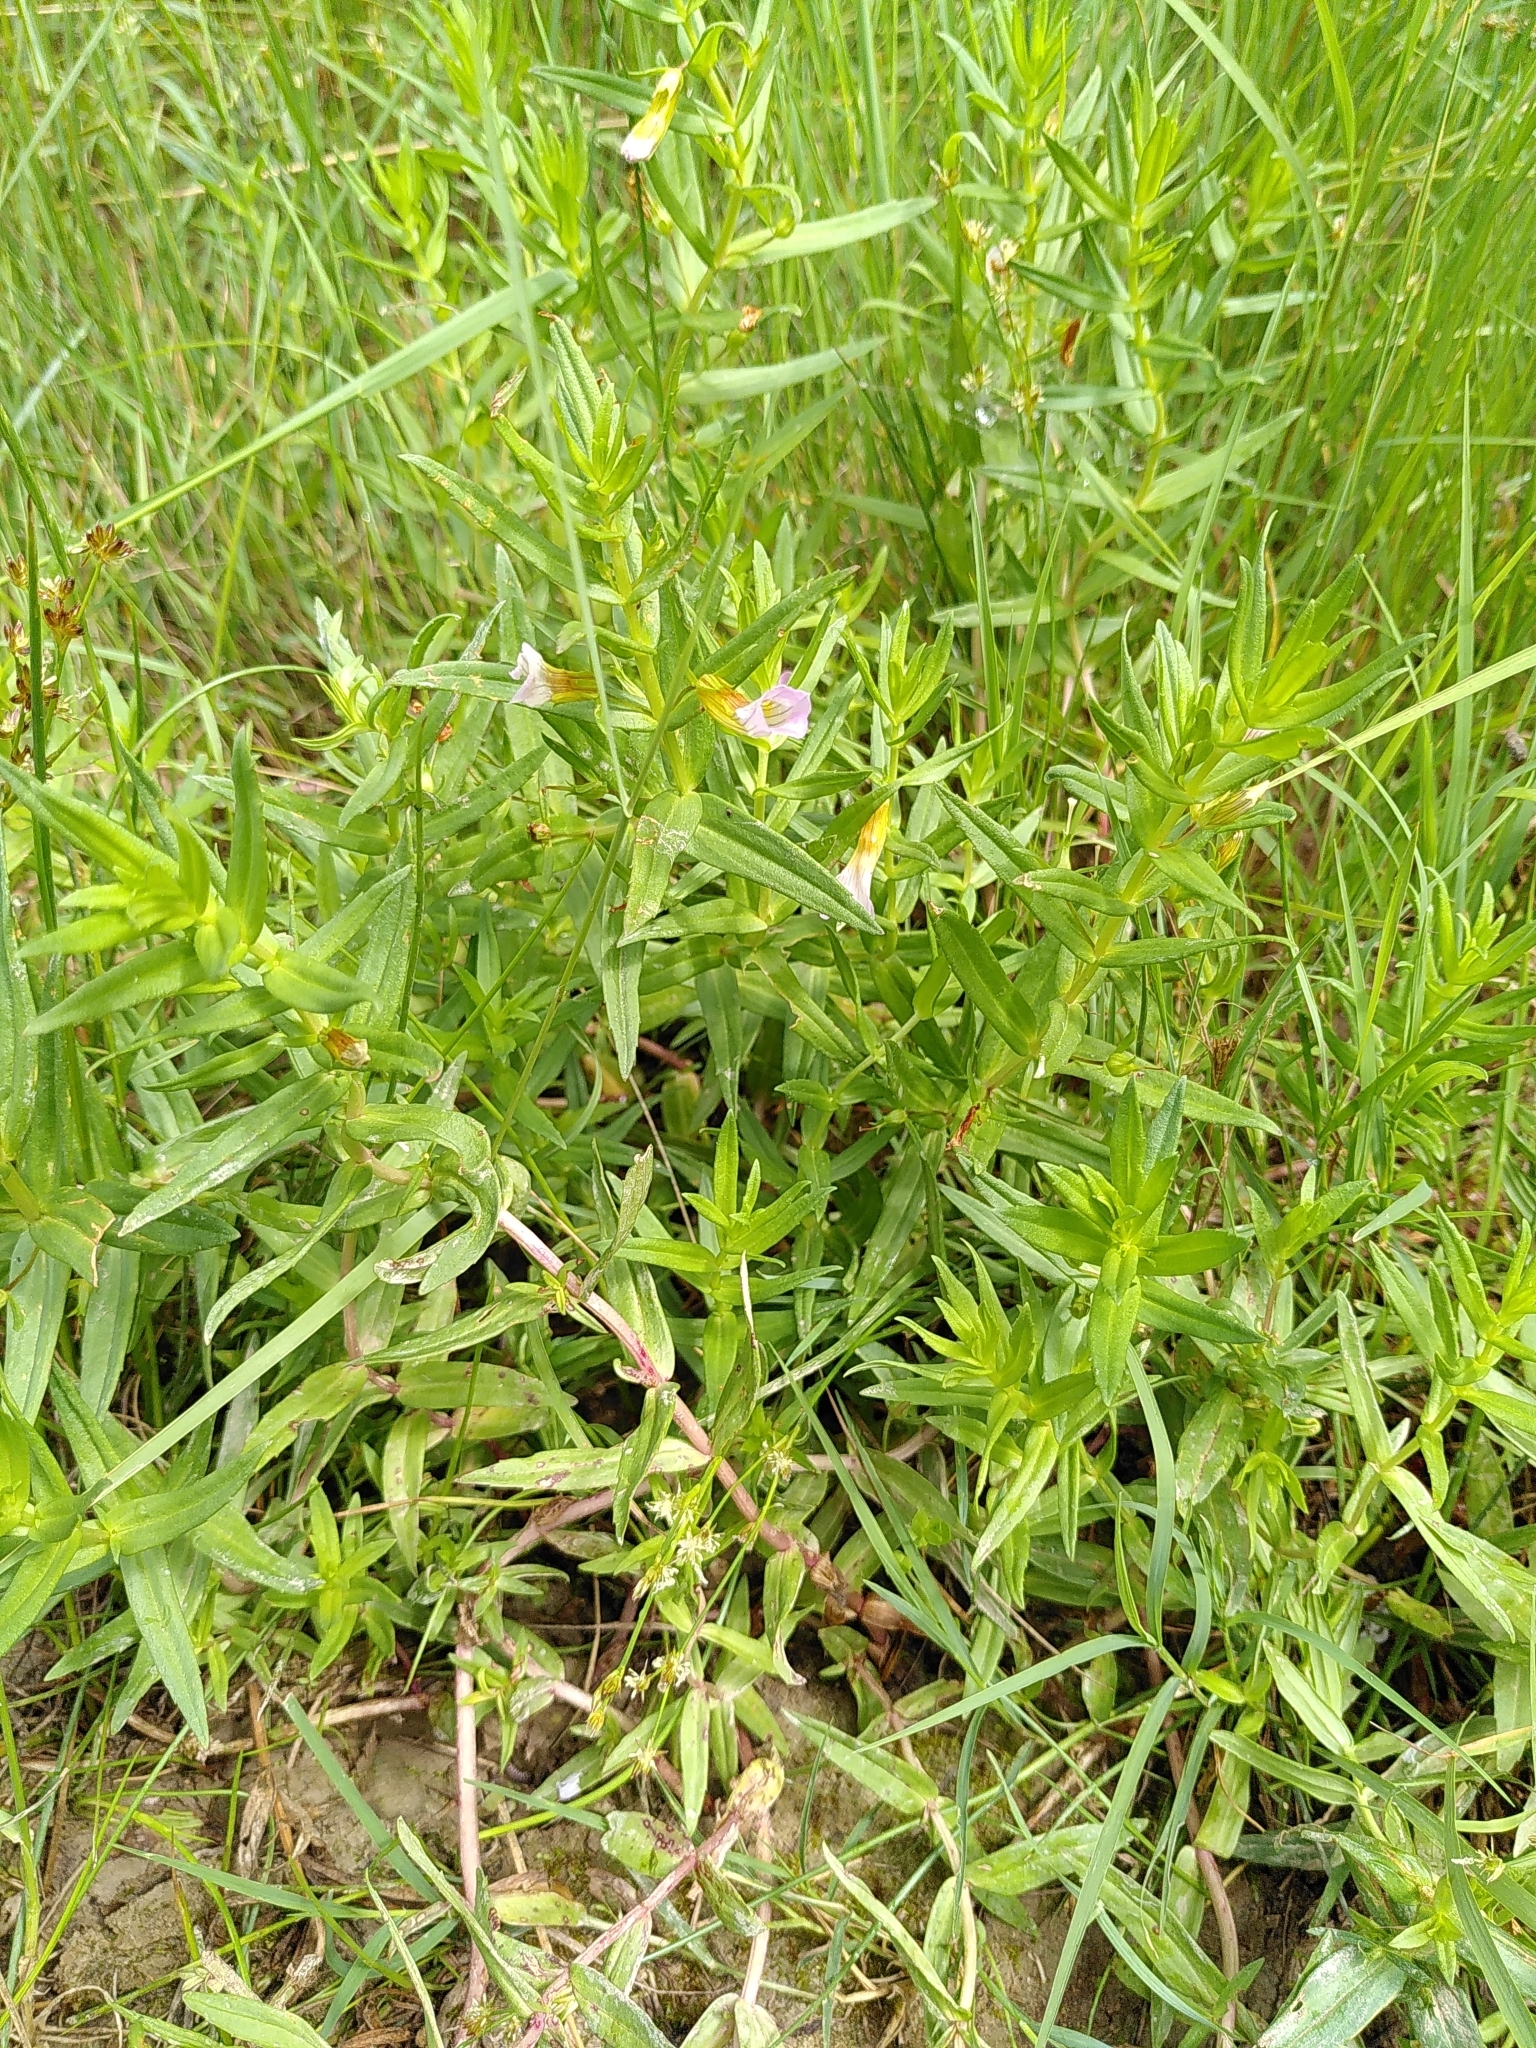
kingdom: Plantae
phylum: Tracheophyta
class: Magnoliopsida
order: Lamiales
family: Plantaginaceae
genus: Gratiola
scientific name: Gratiola officinalis
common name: Gratiola
